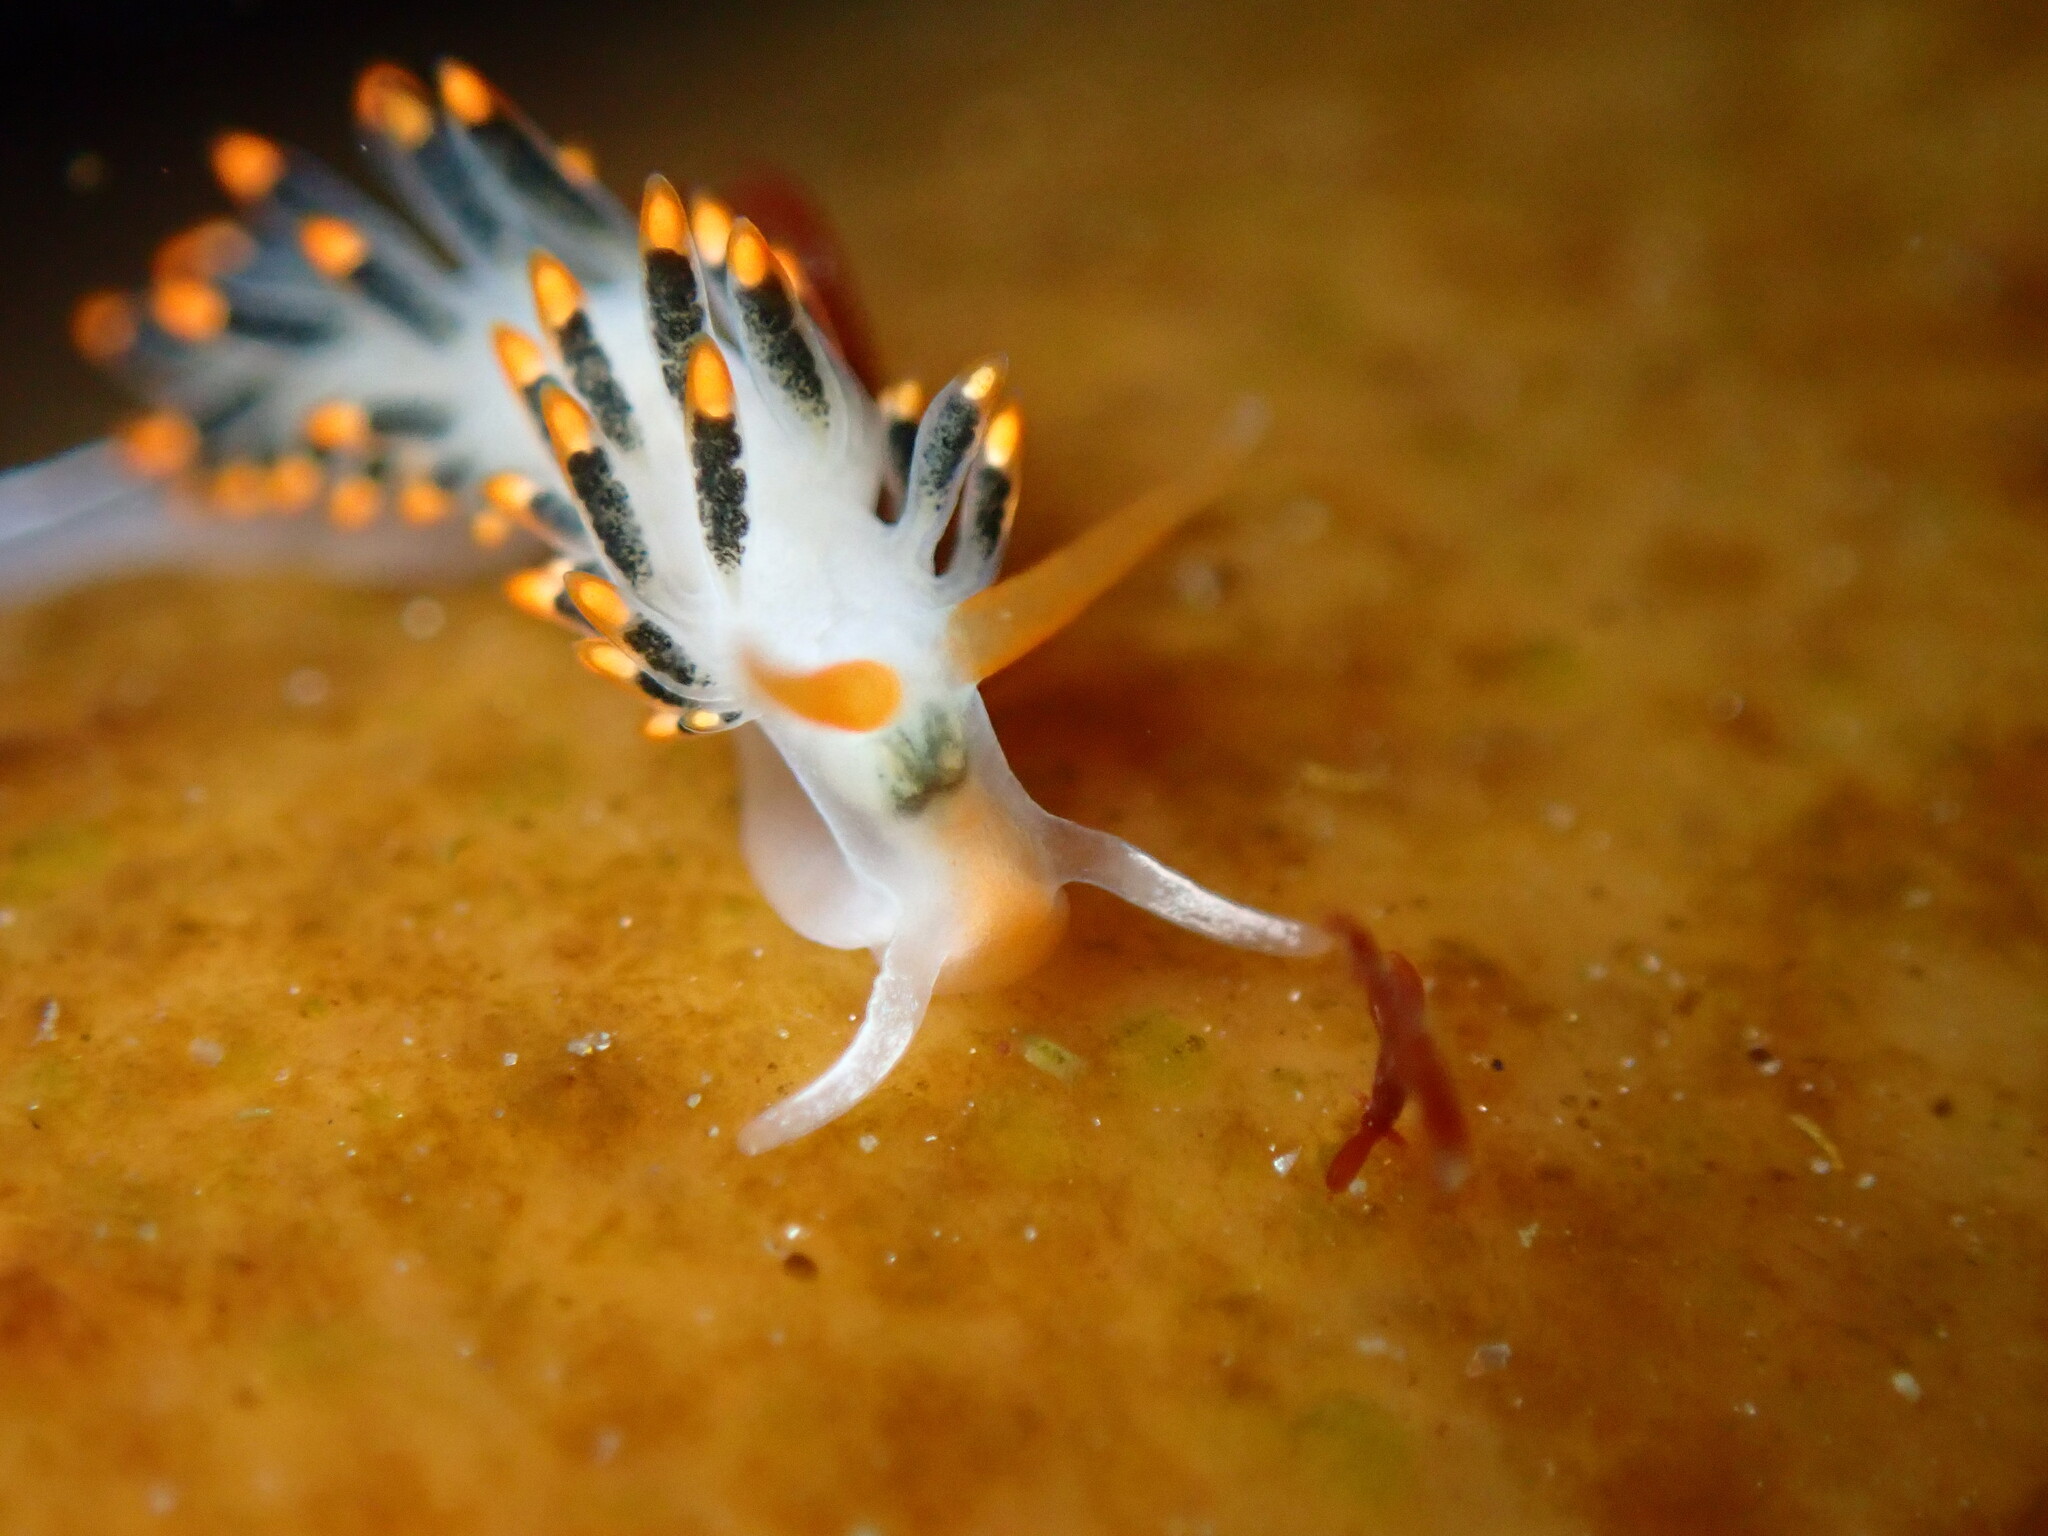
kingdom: Animalia
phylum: Mollusca
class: Gastropoda
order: Nudibranchia
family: Trinchesiidae
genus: Diaphoreolis
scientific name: Diaphoreolis lagunae
